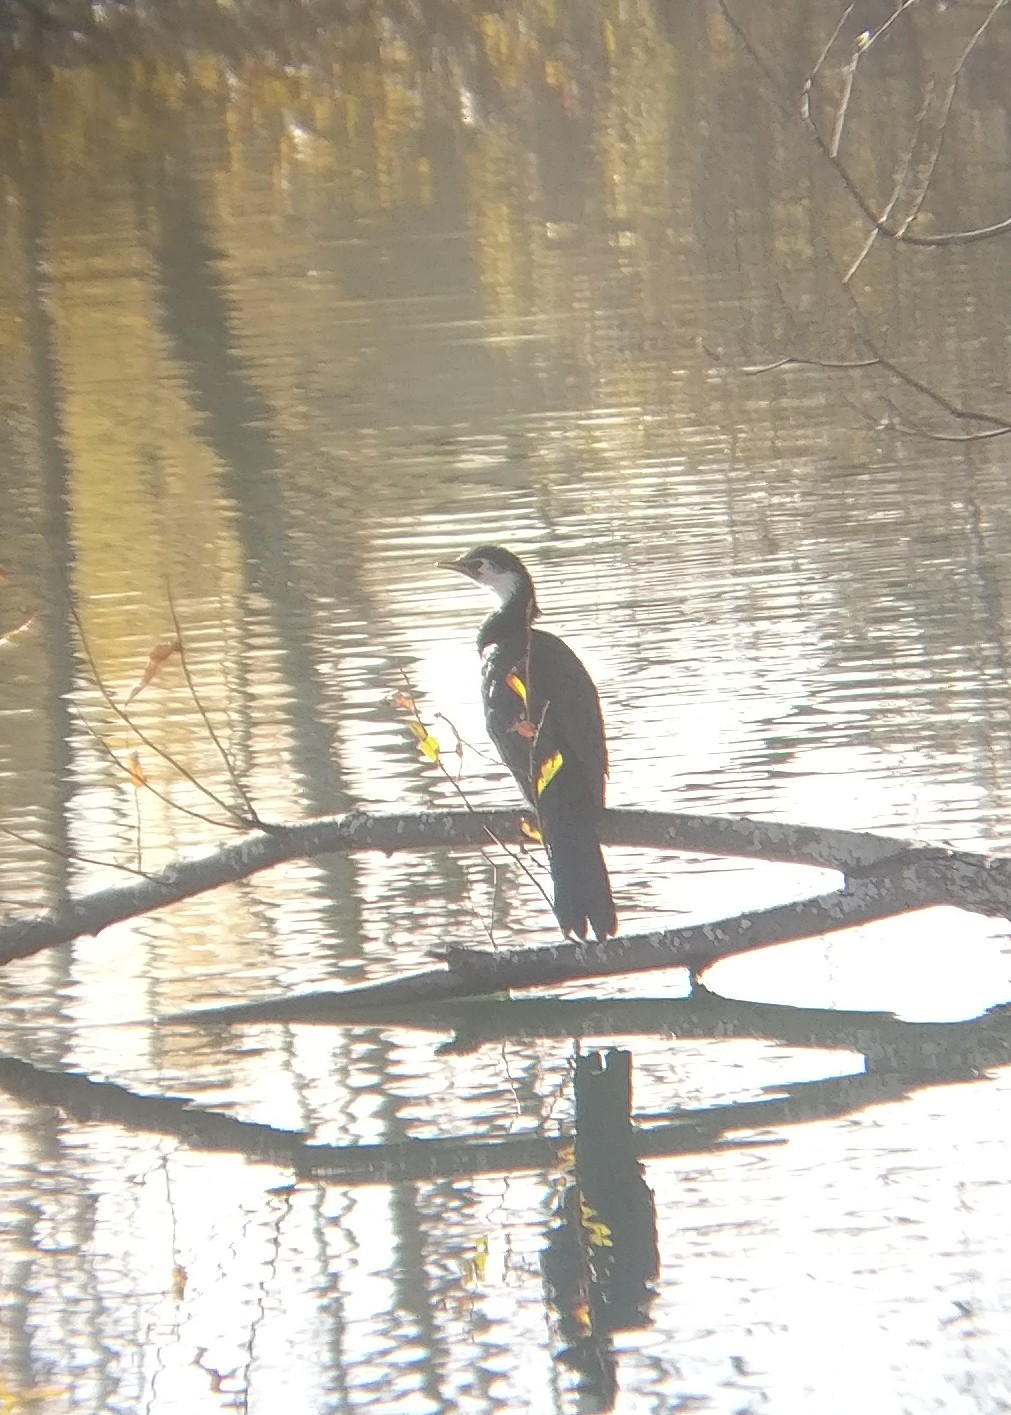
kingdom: Animalia
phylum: Chordata
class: Aves
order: Suliformes
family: Phalacrocoracidae
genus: Microcarbo
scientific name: Microcarbo melanoleucos
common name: Little pied cormorant
